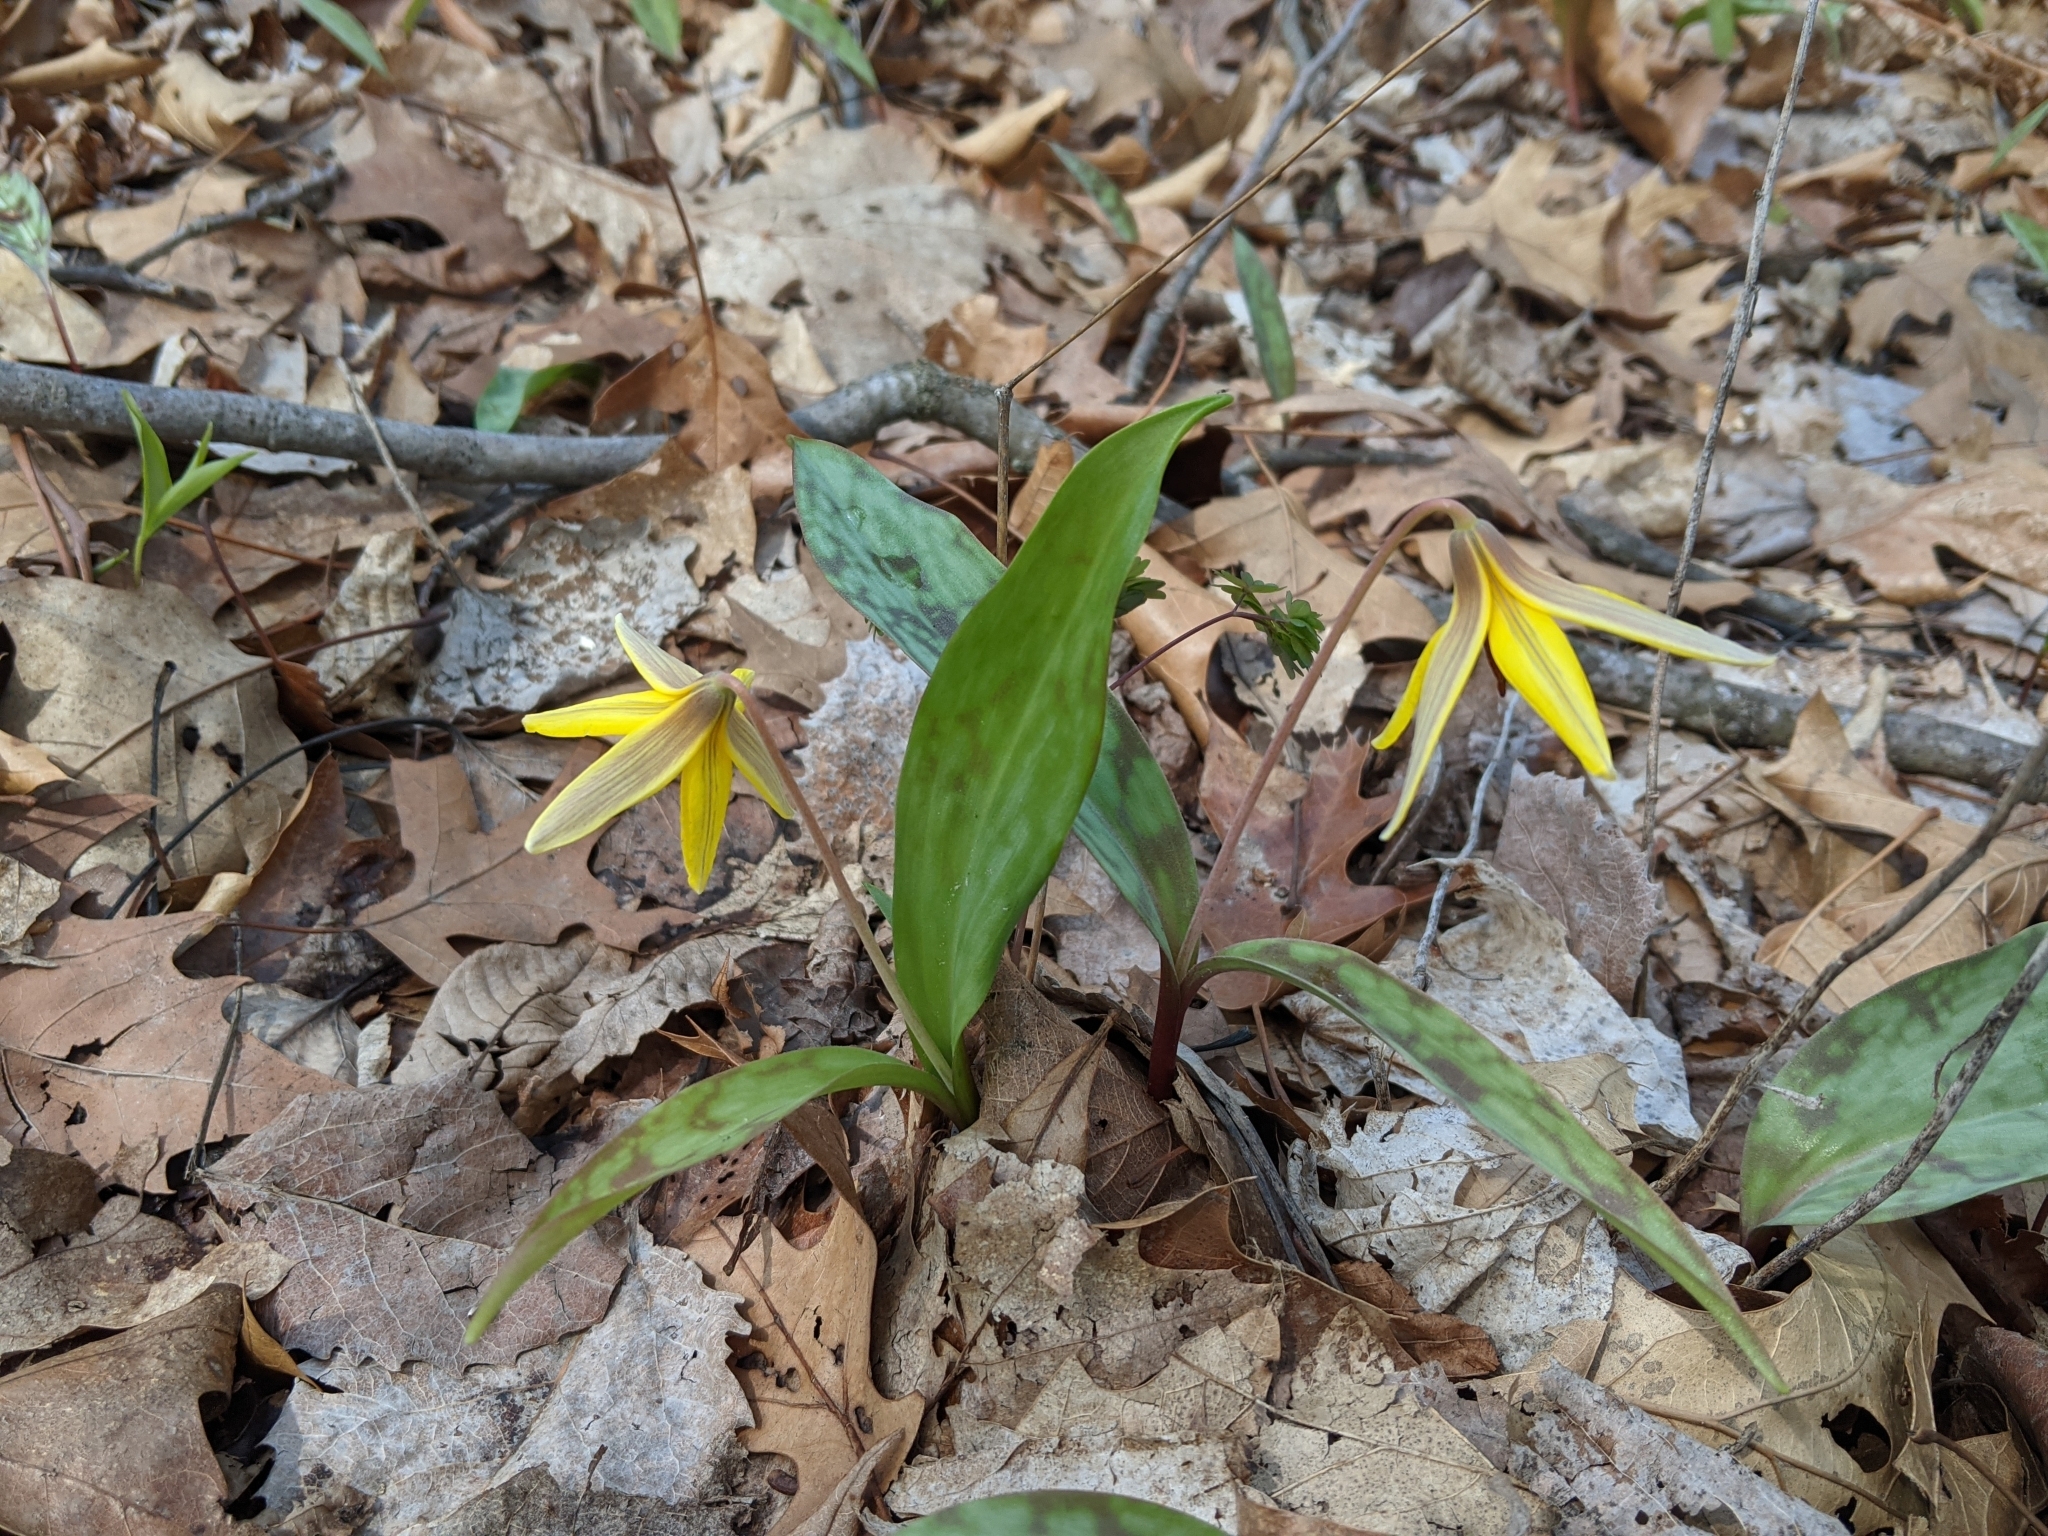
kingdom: Plantae
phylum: Tracheophyta
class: Liliopsida
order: Liliales
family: Liliaceae
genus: Erythronium
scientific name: Erythronium americanum
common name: Yellow adder's-tongue
